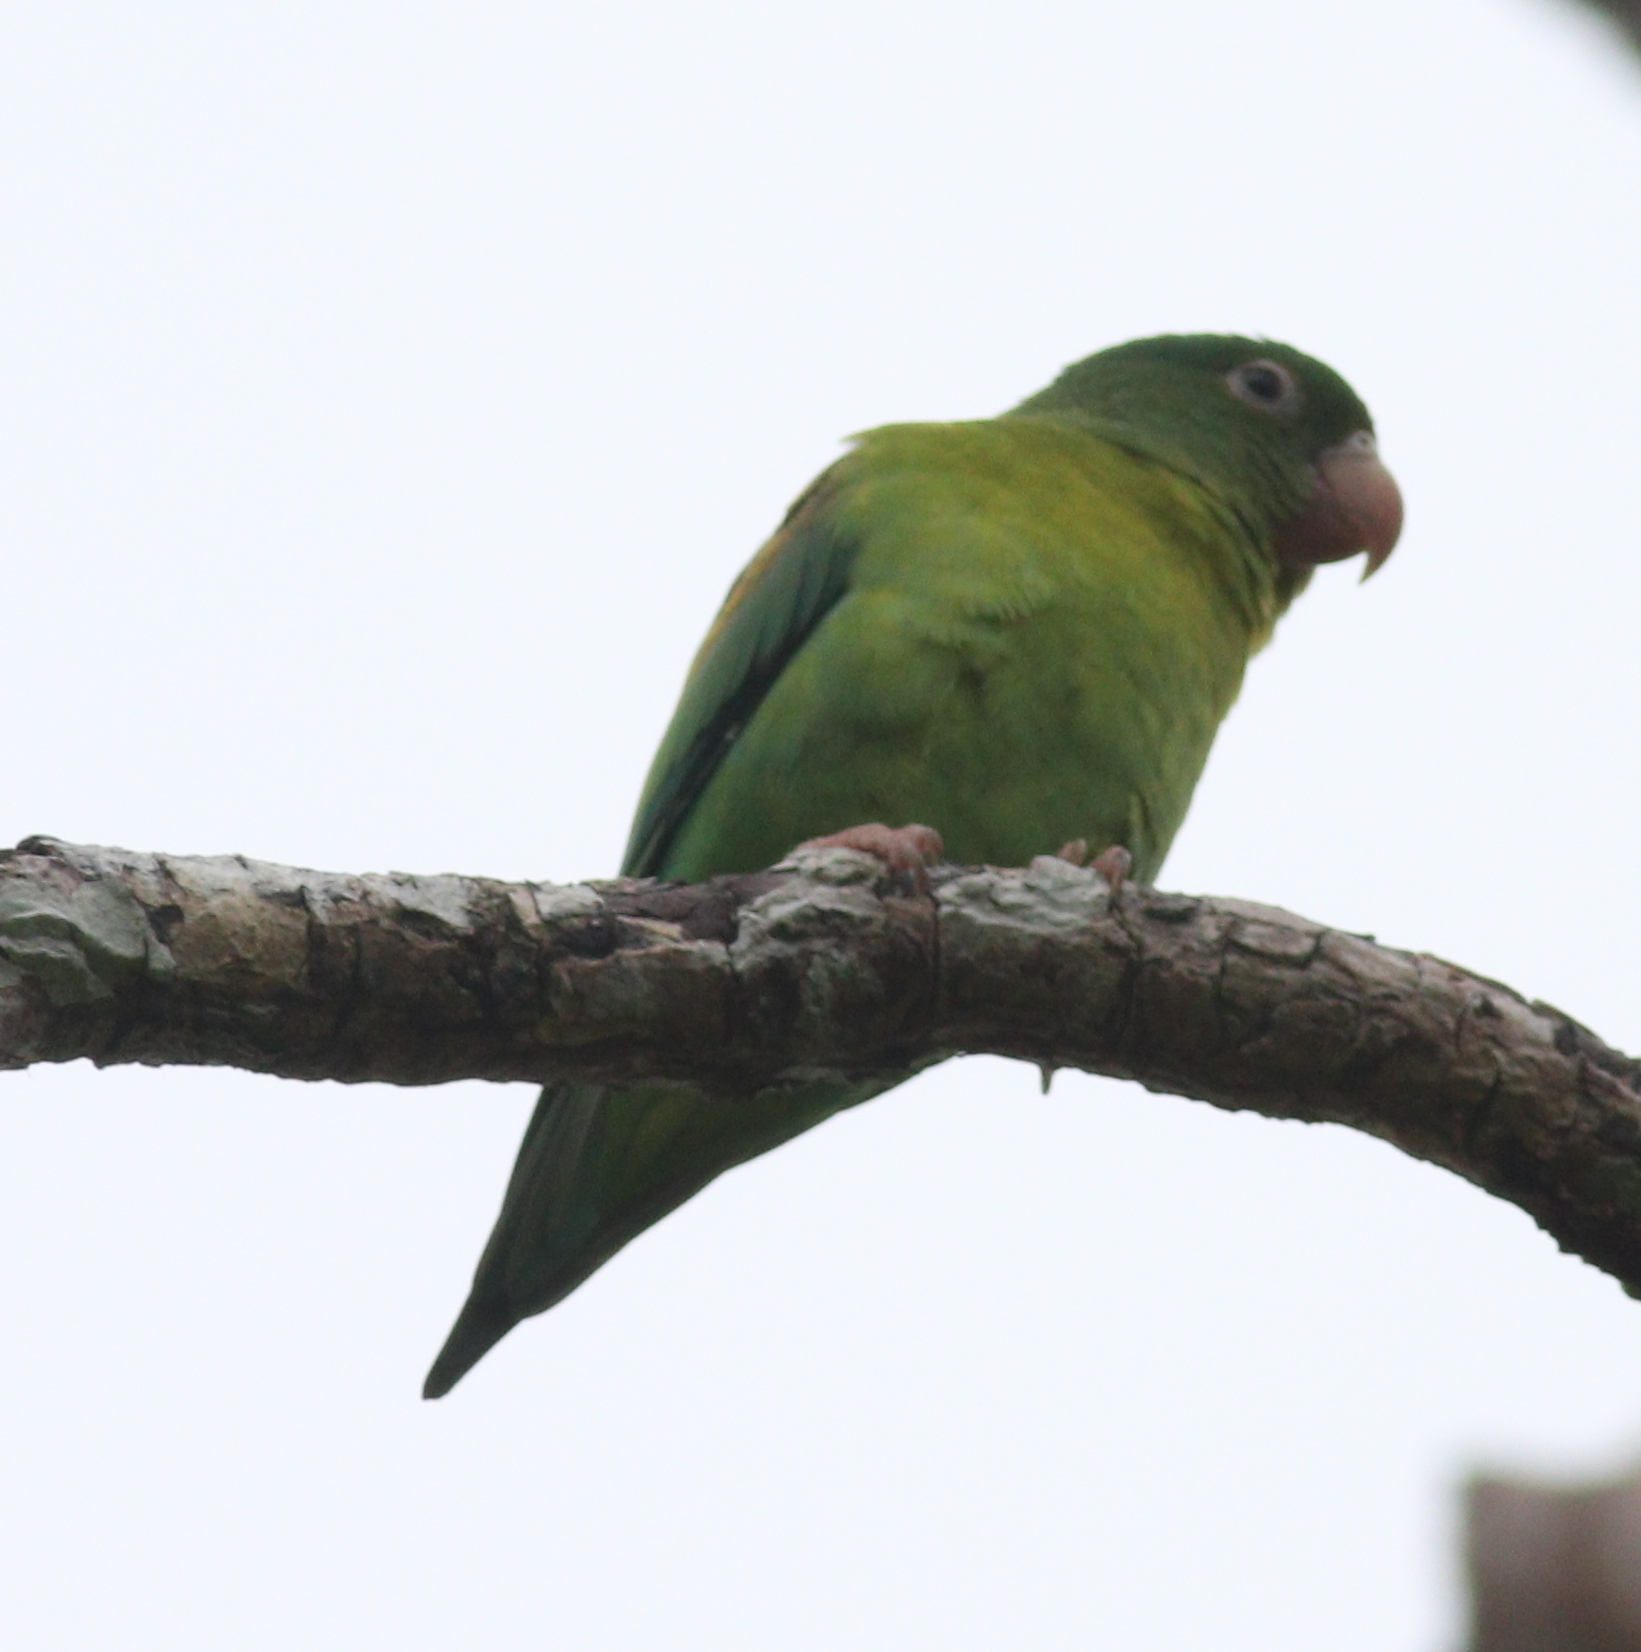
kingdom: Animalia
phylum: Chordata
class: Aves
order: Psittaciformes
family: Psittacidae
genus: Brotogeris
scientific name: Brotogeris jugularis
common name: Orange-chinned parakeet
